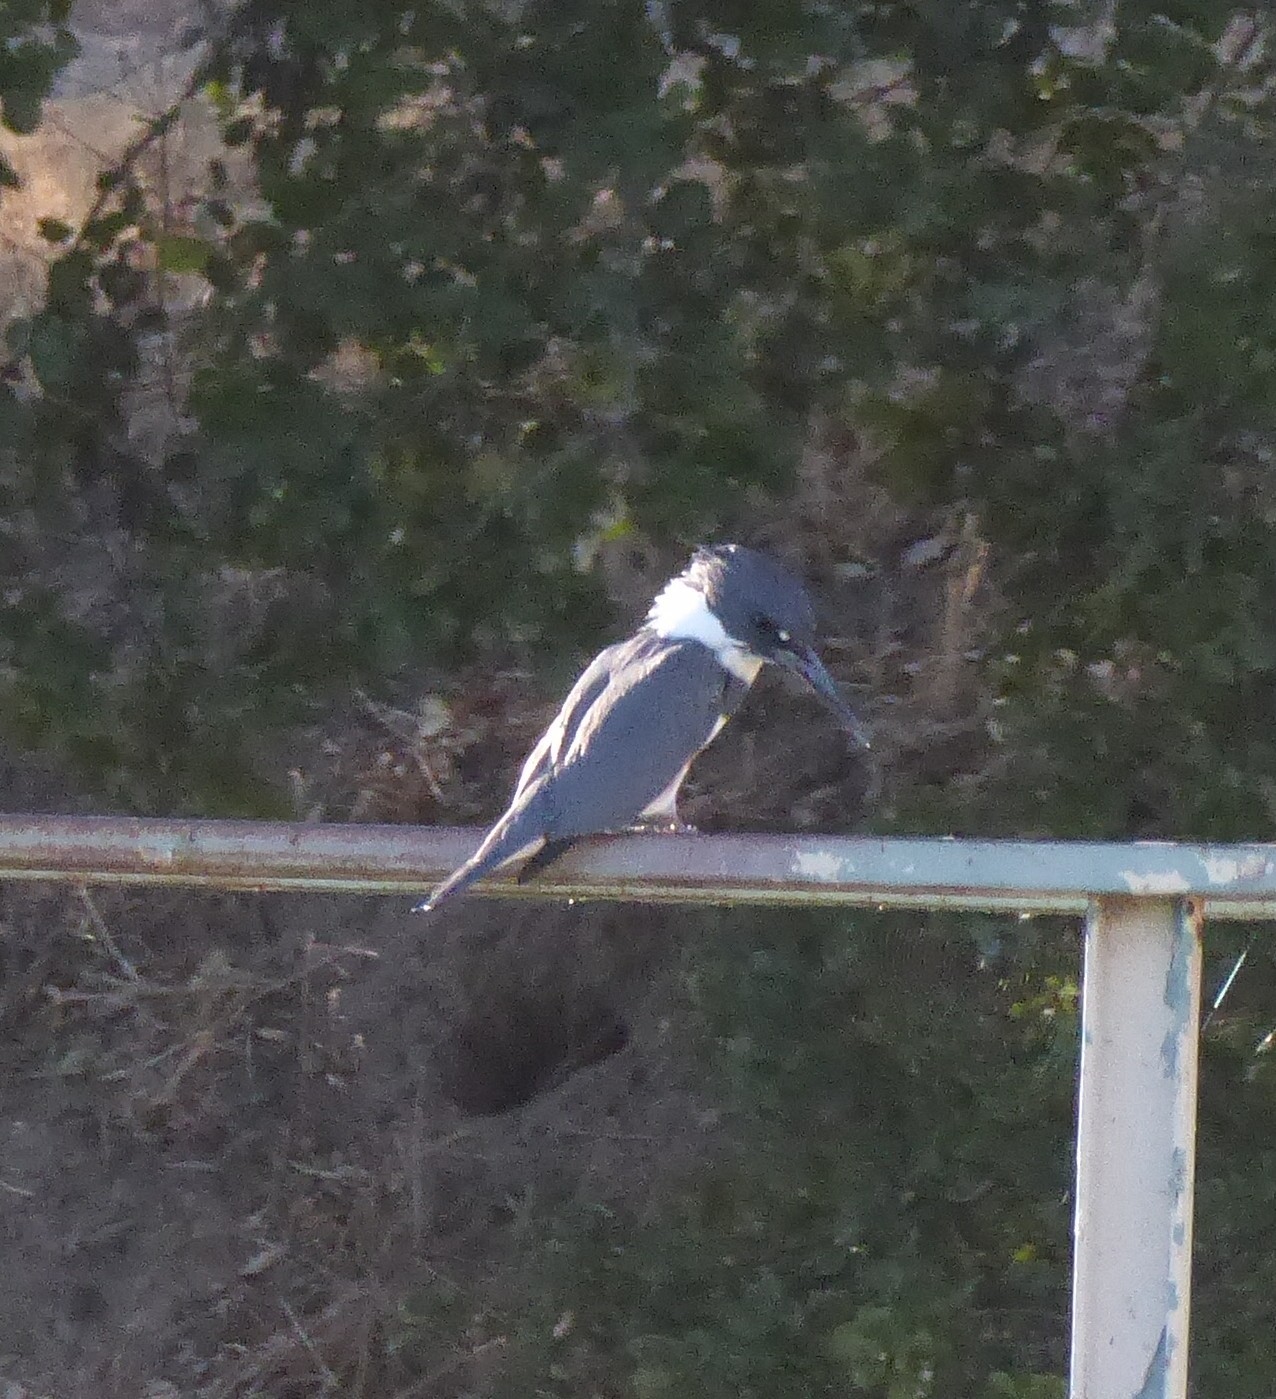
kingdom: Animalia
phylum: Chordata
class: Aves
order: Coraciiformes
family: Alcedinidae
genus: Megaceryle
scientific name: Megaceryle alcyon
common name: Belted kingfisher
